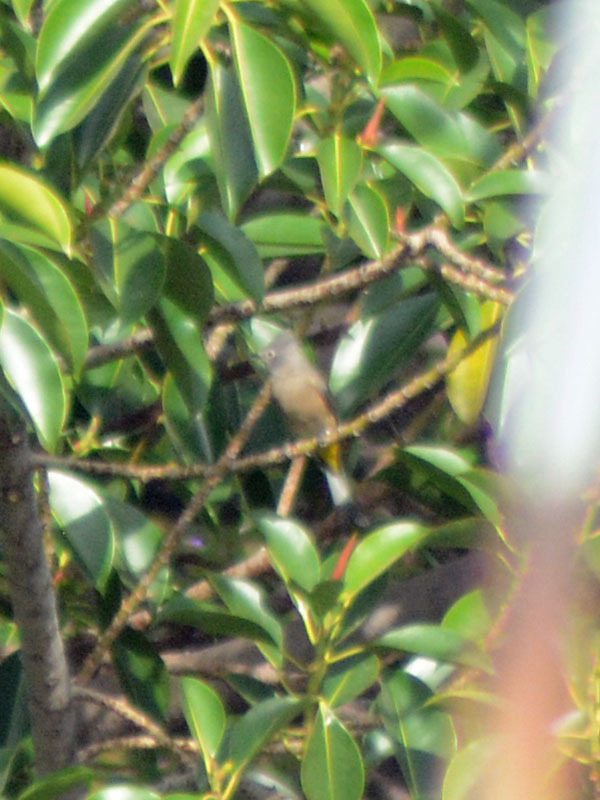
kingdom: Animalia
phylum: Chordata
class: Aves
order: Passeriformes
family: Ptilogonatidae
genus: Ptilogonys
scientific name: Ptilogonys cinereus
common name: Gray silky-flycatcher
